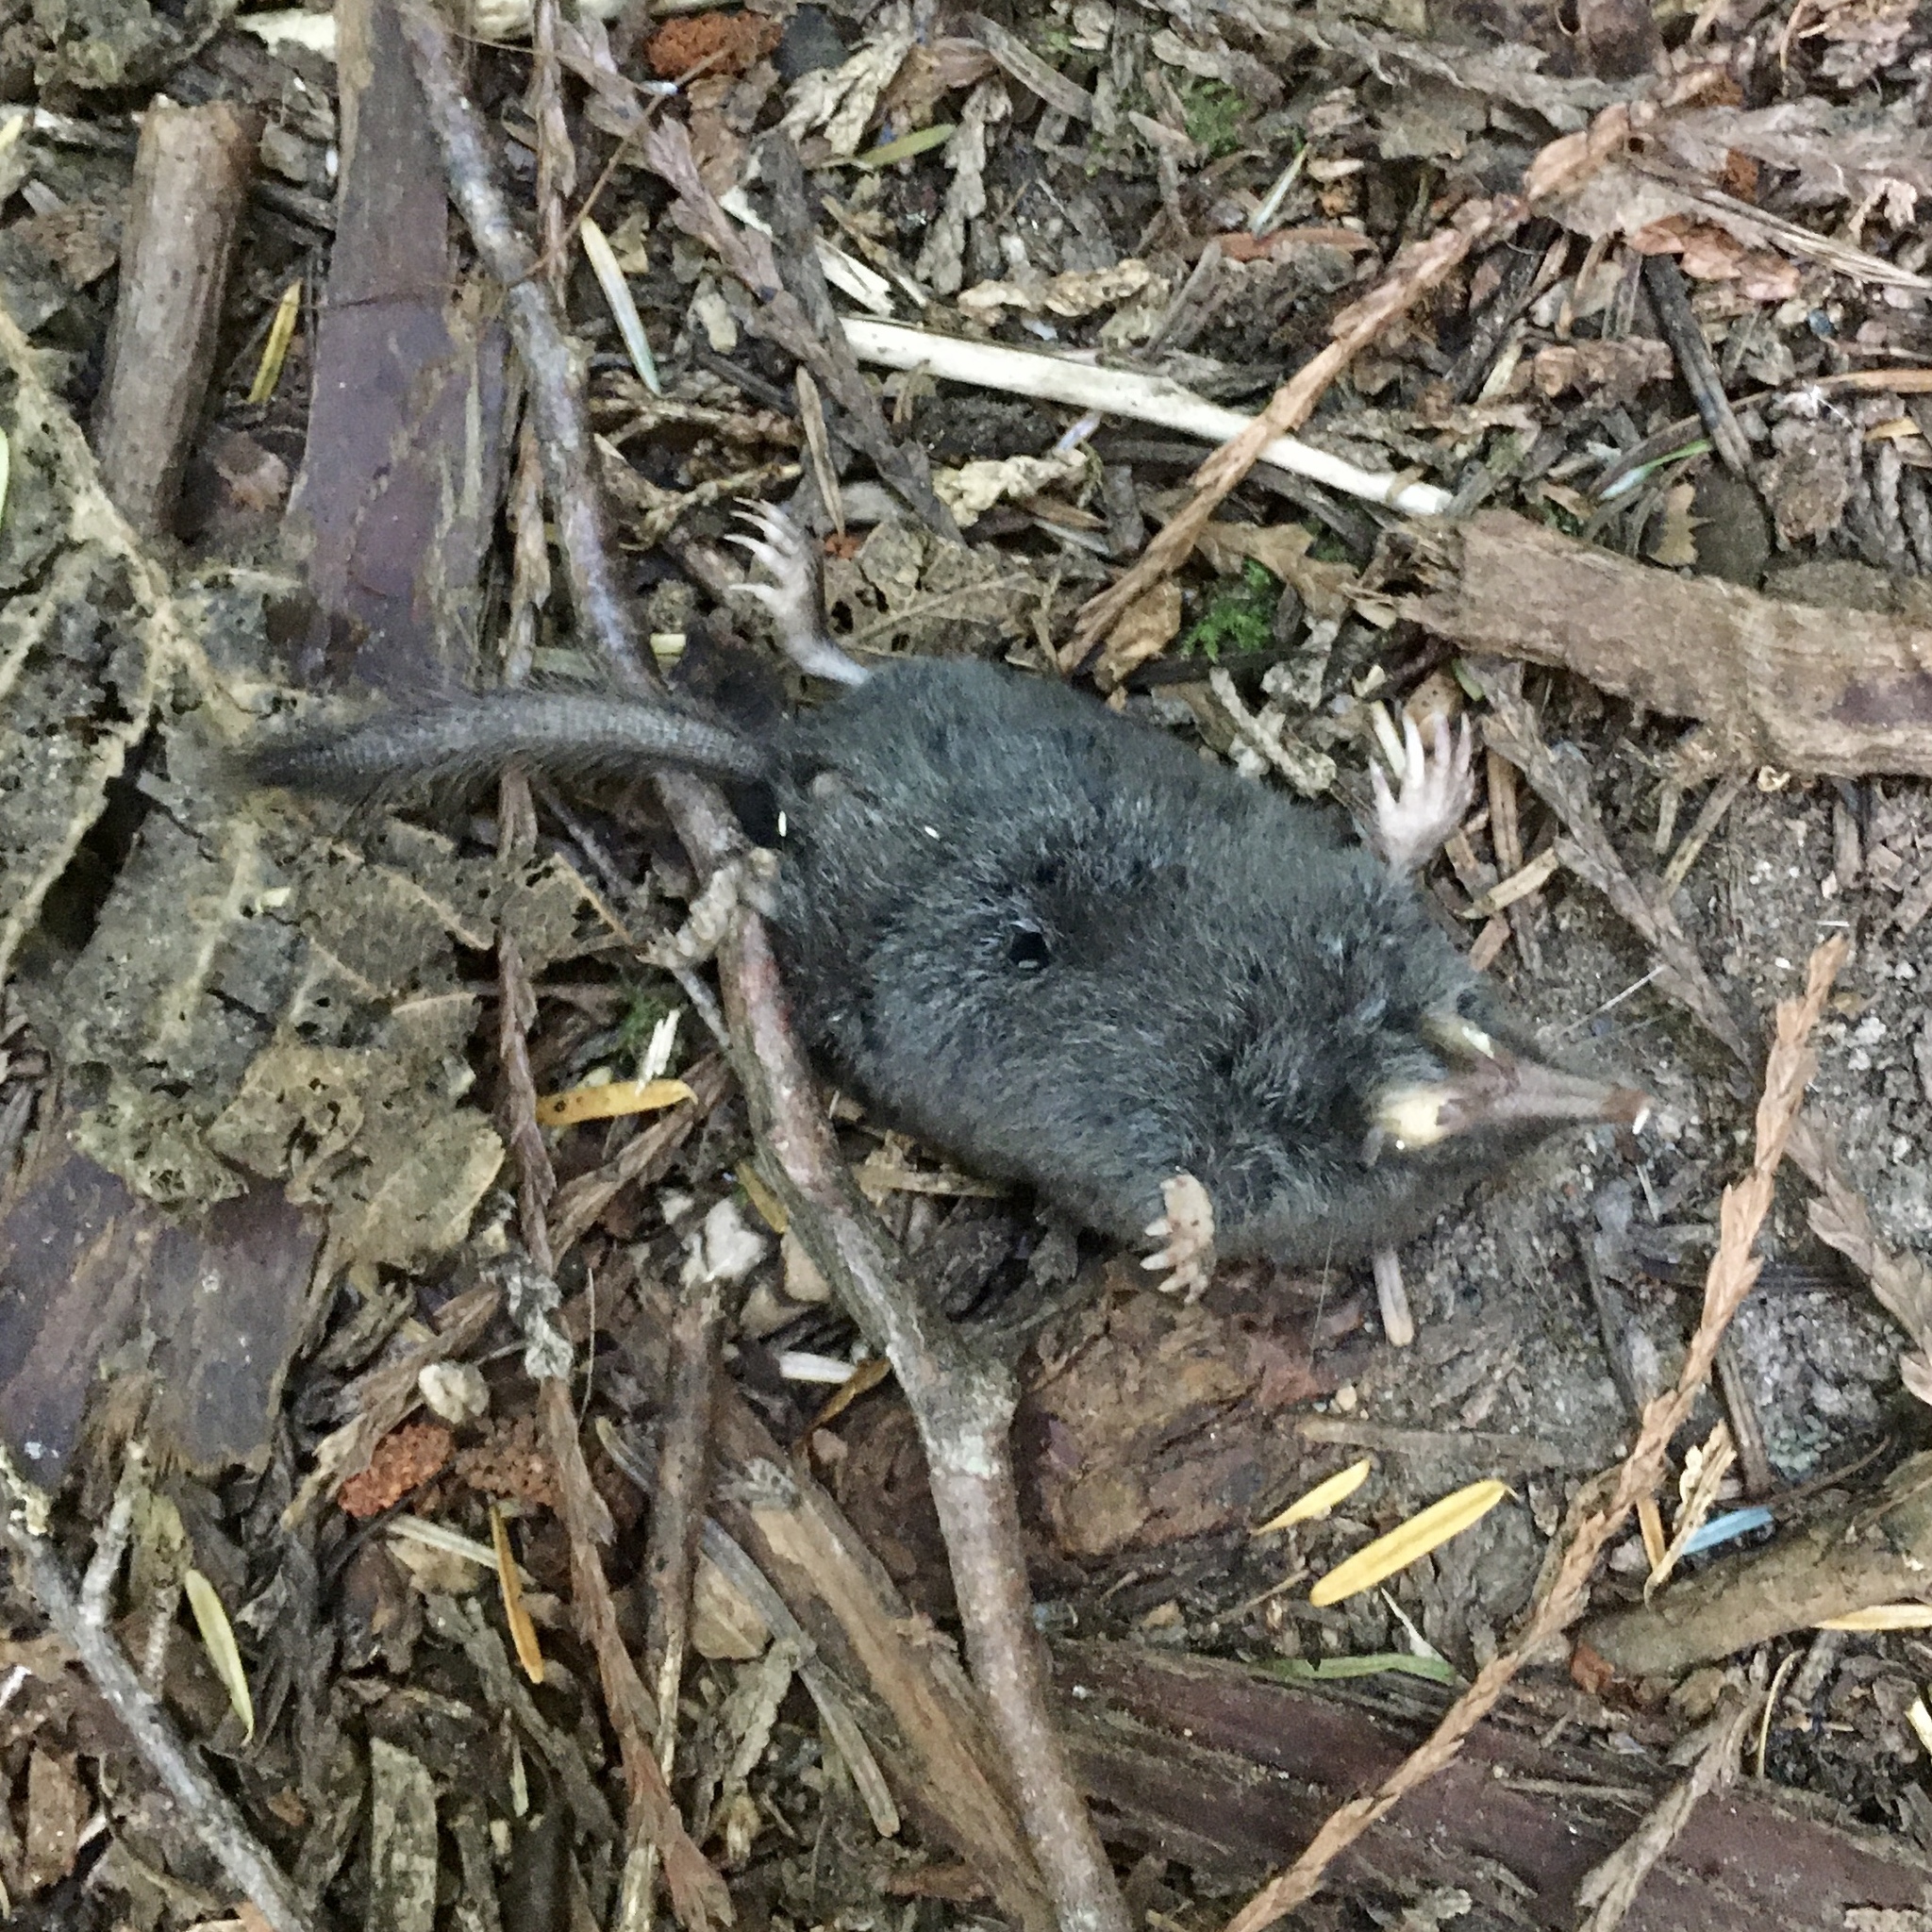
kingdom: Animalia
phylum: Chordata
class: Mammalia
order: Soricomorpha
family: Talpidae
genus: Neurotrichus
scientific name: Neurotrichus gibbsii
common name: American shrew mole
